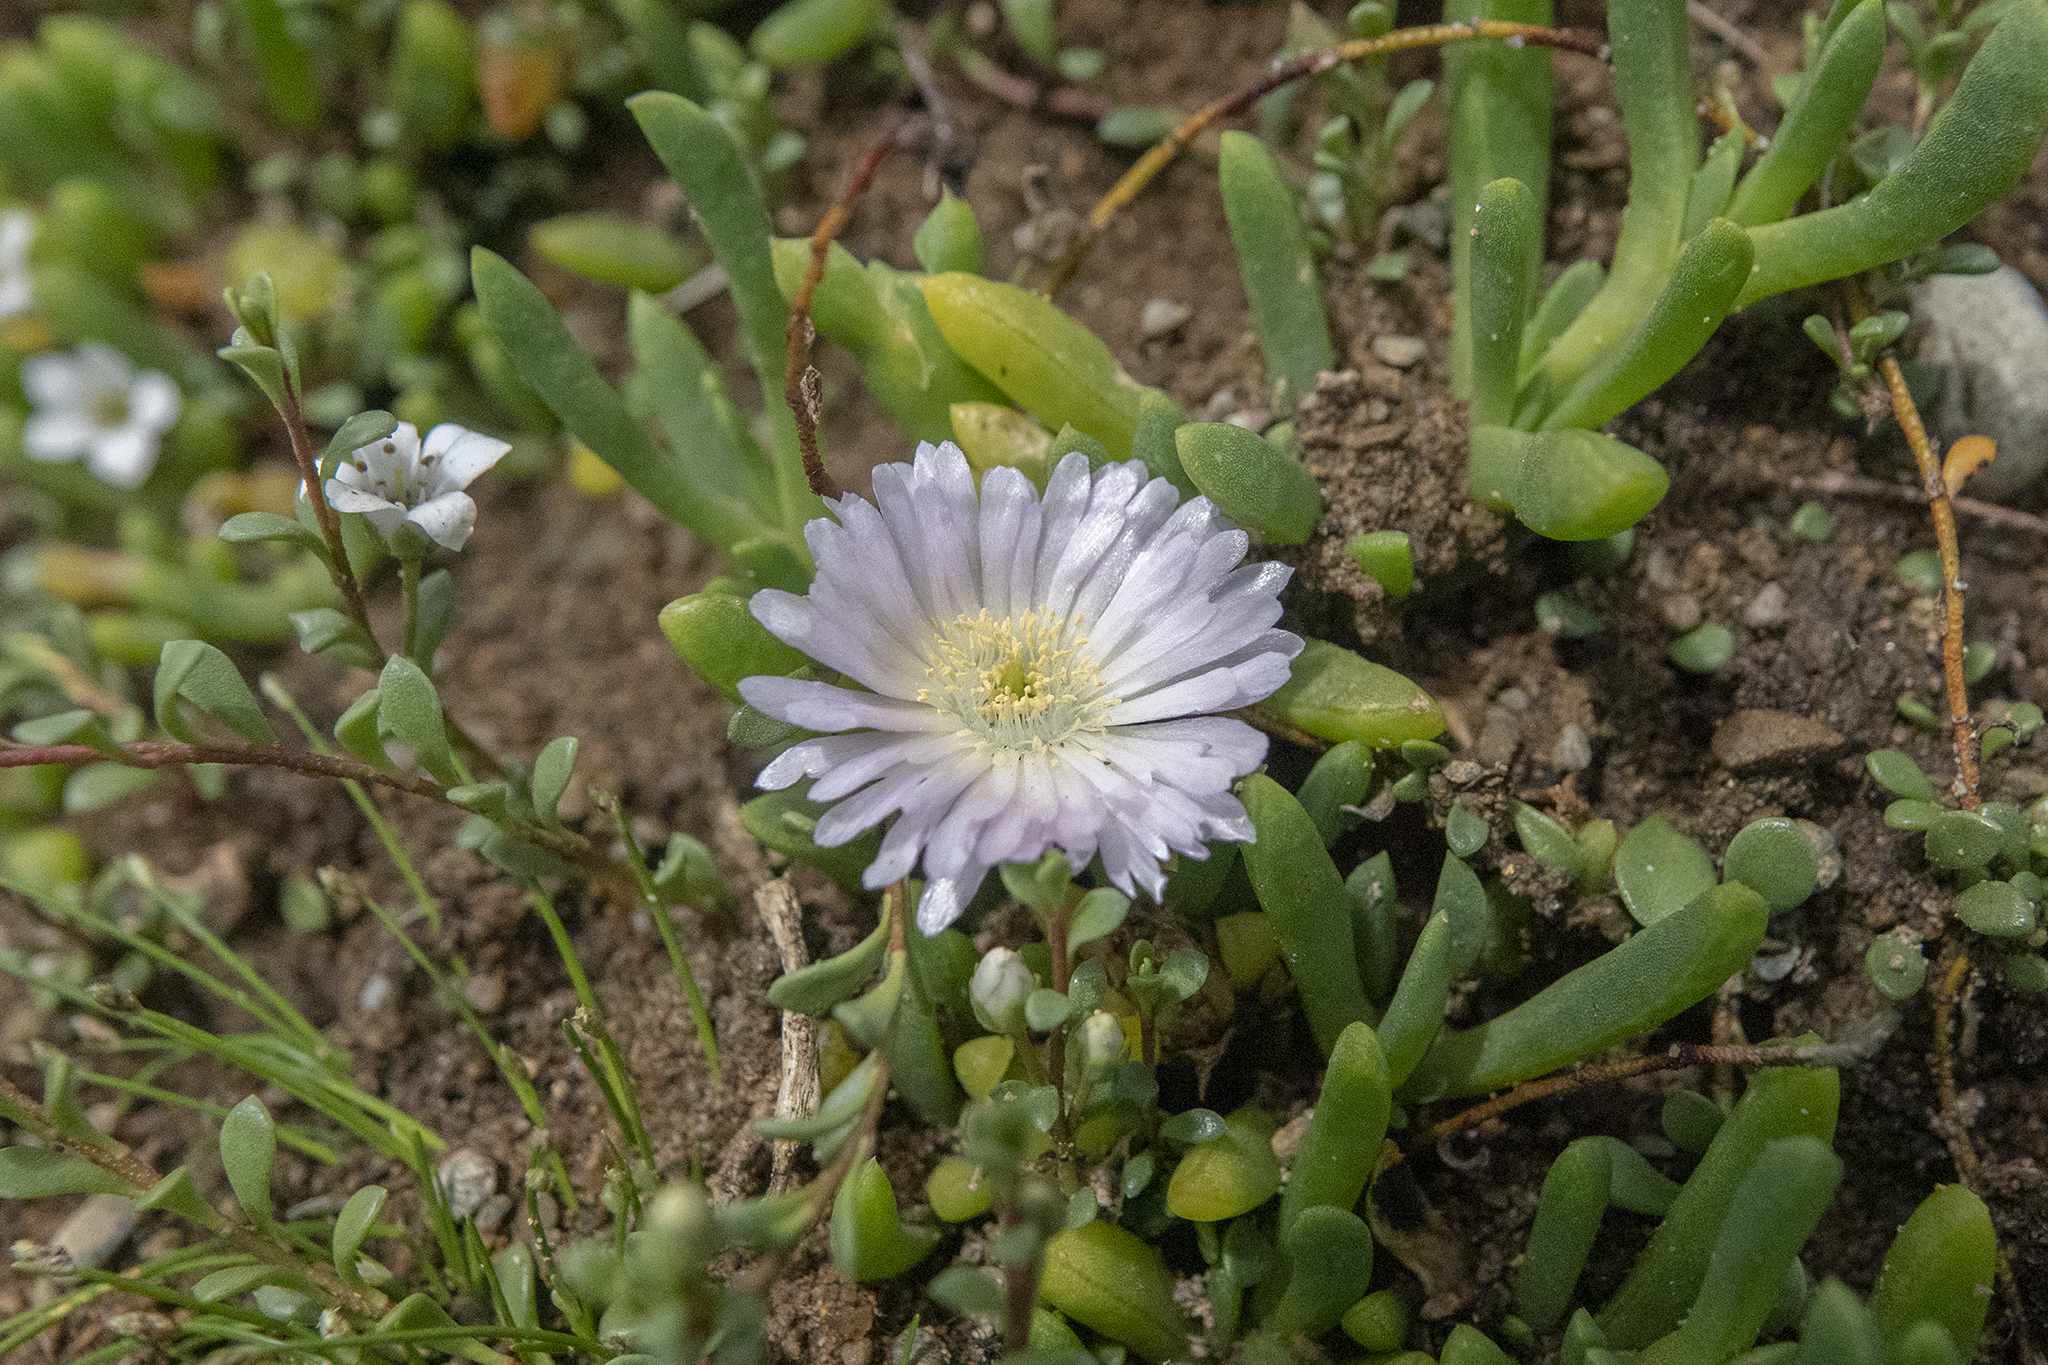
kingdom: Plantae
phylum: Tracheophyta
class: Magnoliopsida
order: Caryophyllales
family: Aizoaceae
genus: Disphyma
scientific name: Disphyma australe
